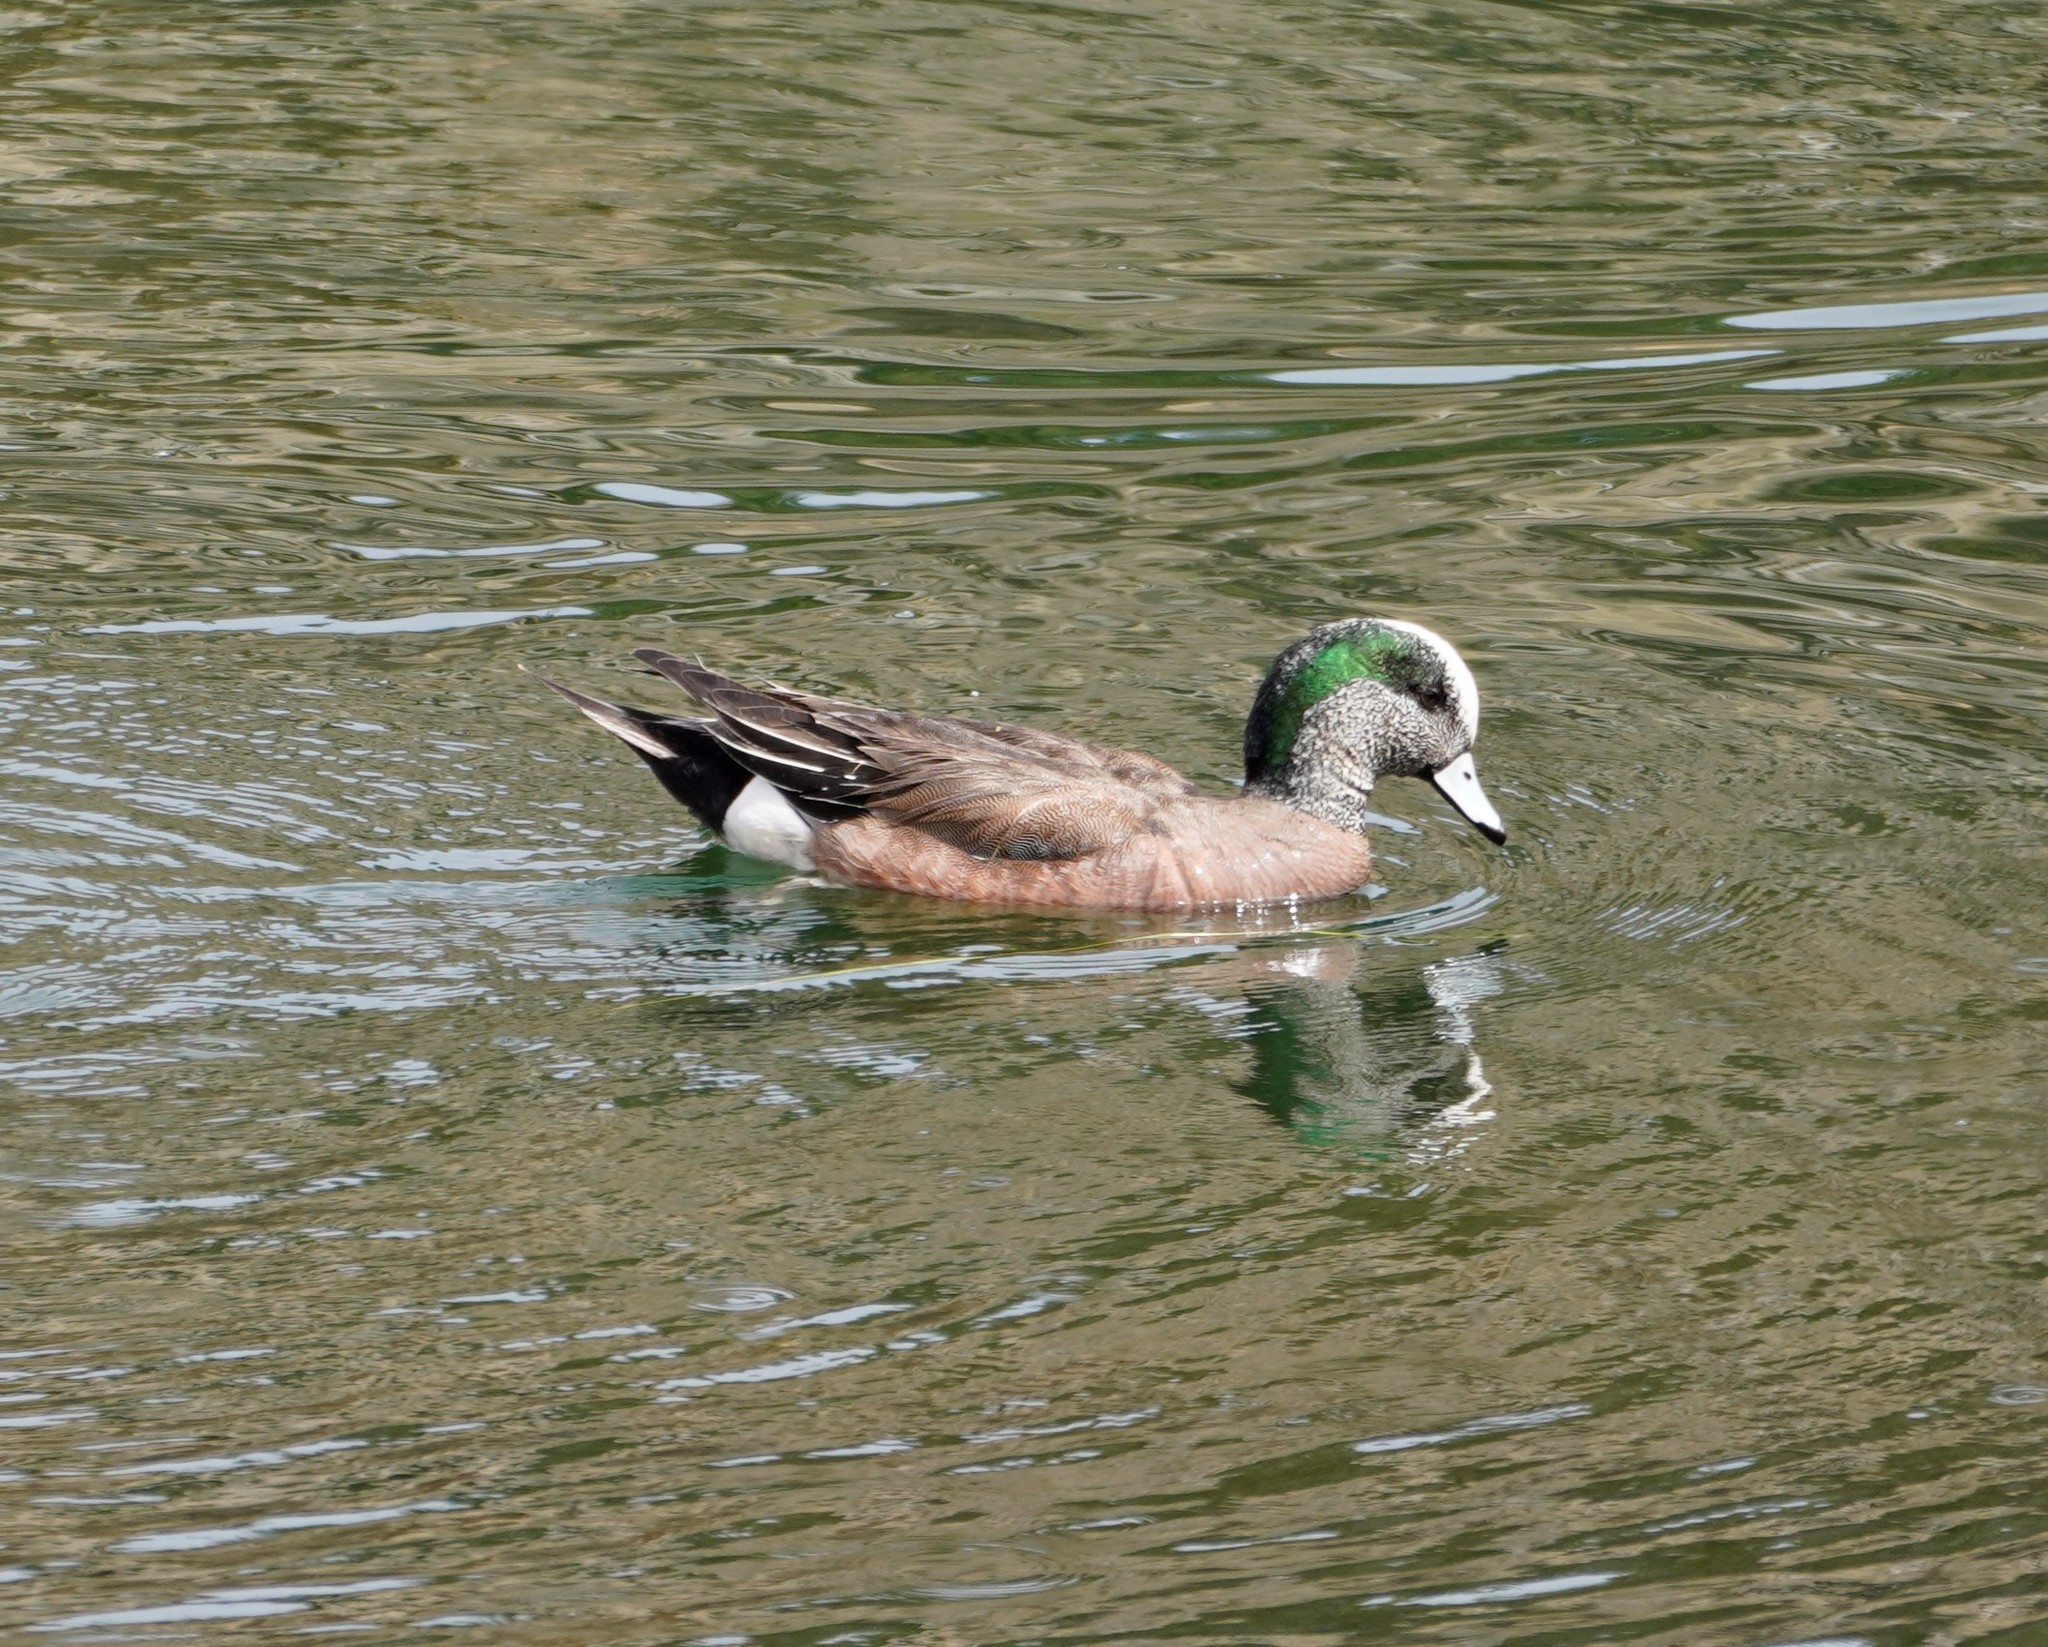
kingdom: Animalia
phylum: Chordata
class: Aves
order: Anseriformes
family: Anatidae
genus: Mareca
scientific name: Mareca americana
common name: American wigeon
